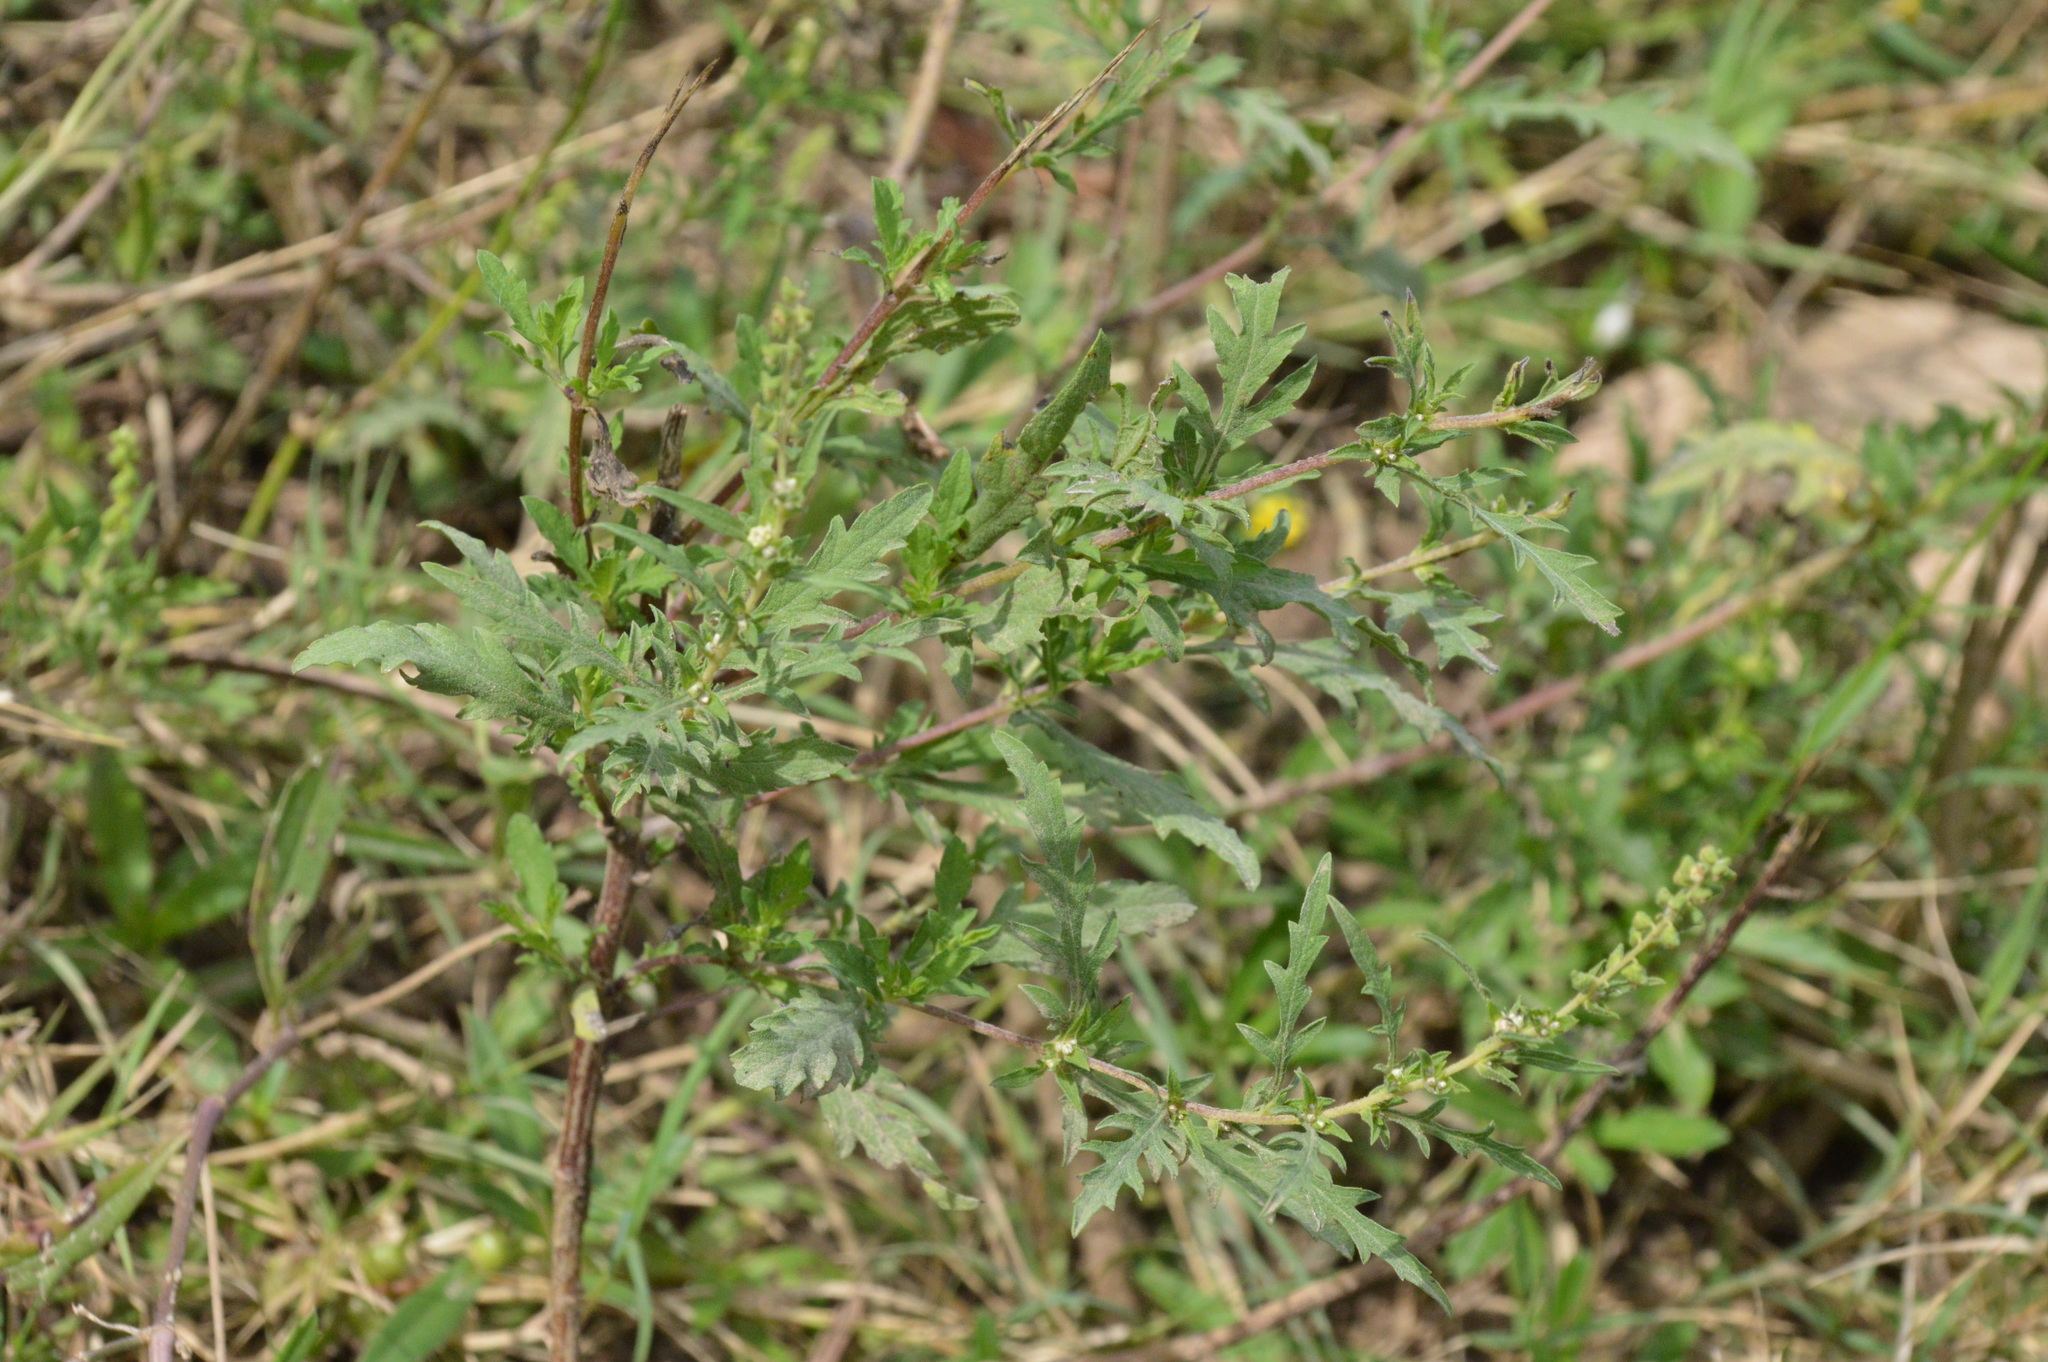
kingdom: Plantae
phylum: Tracheophyta
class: Magnoliopsida
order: Asterales
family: Asteraceae
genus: Ambrosia
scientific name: Ambrosia psilostachya
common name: Perennial ragweed
